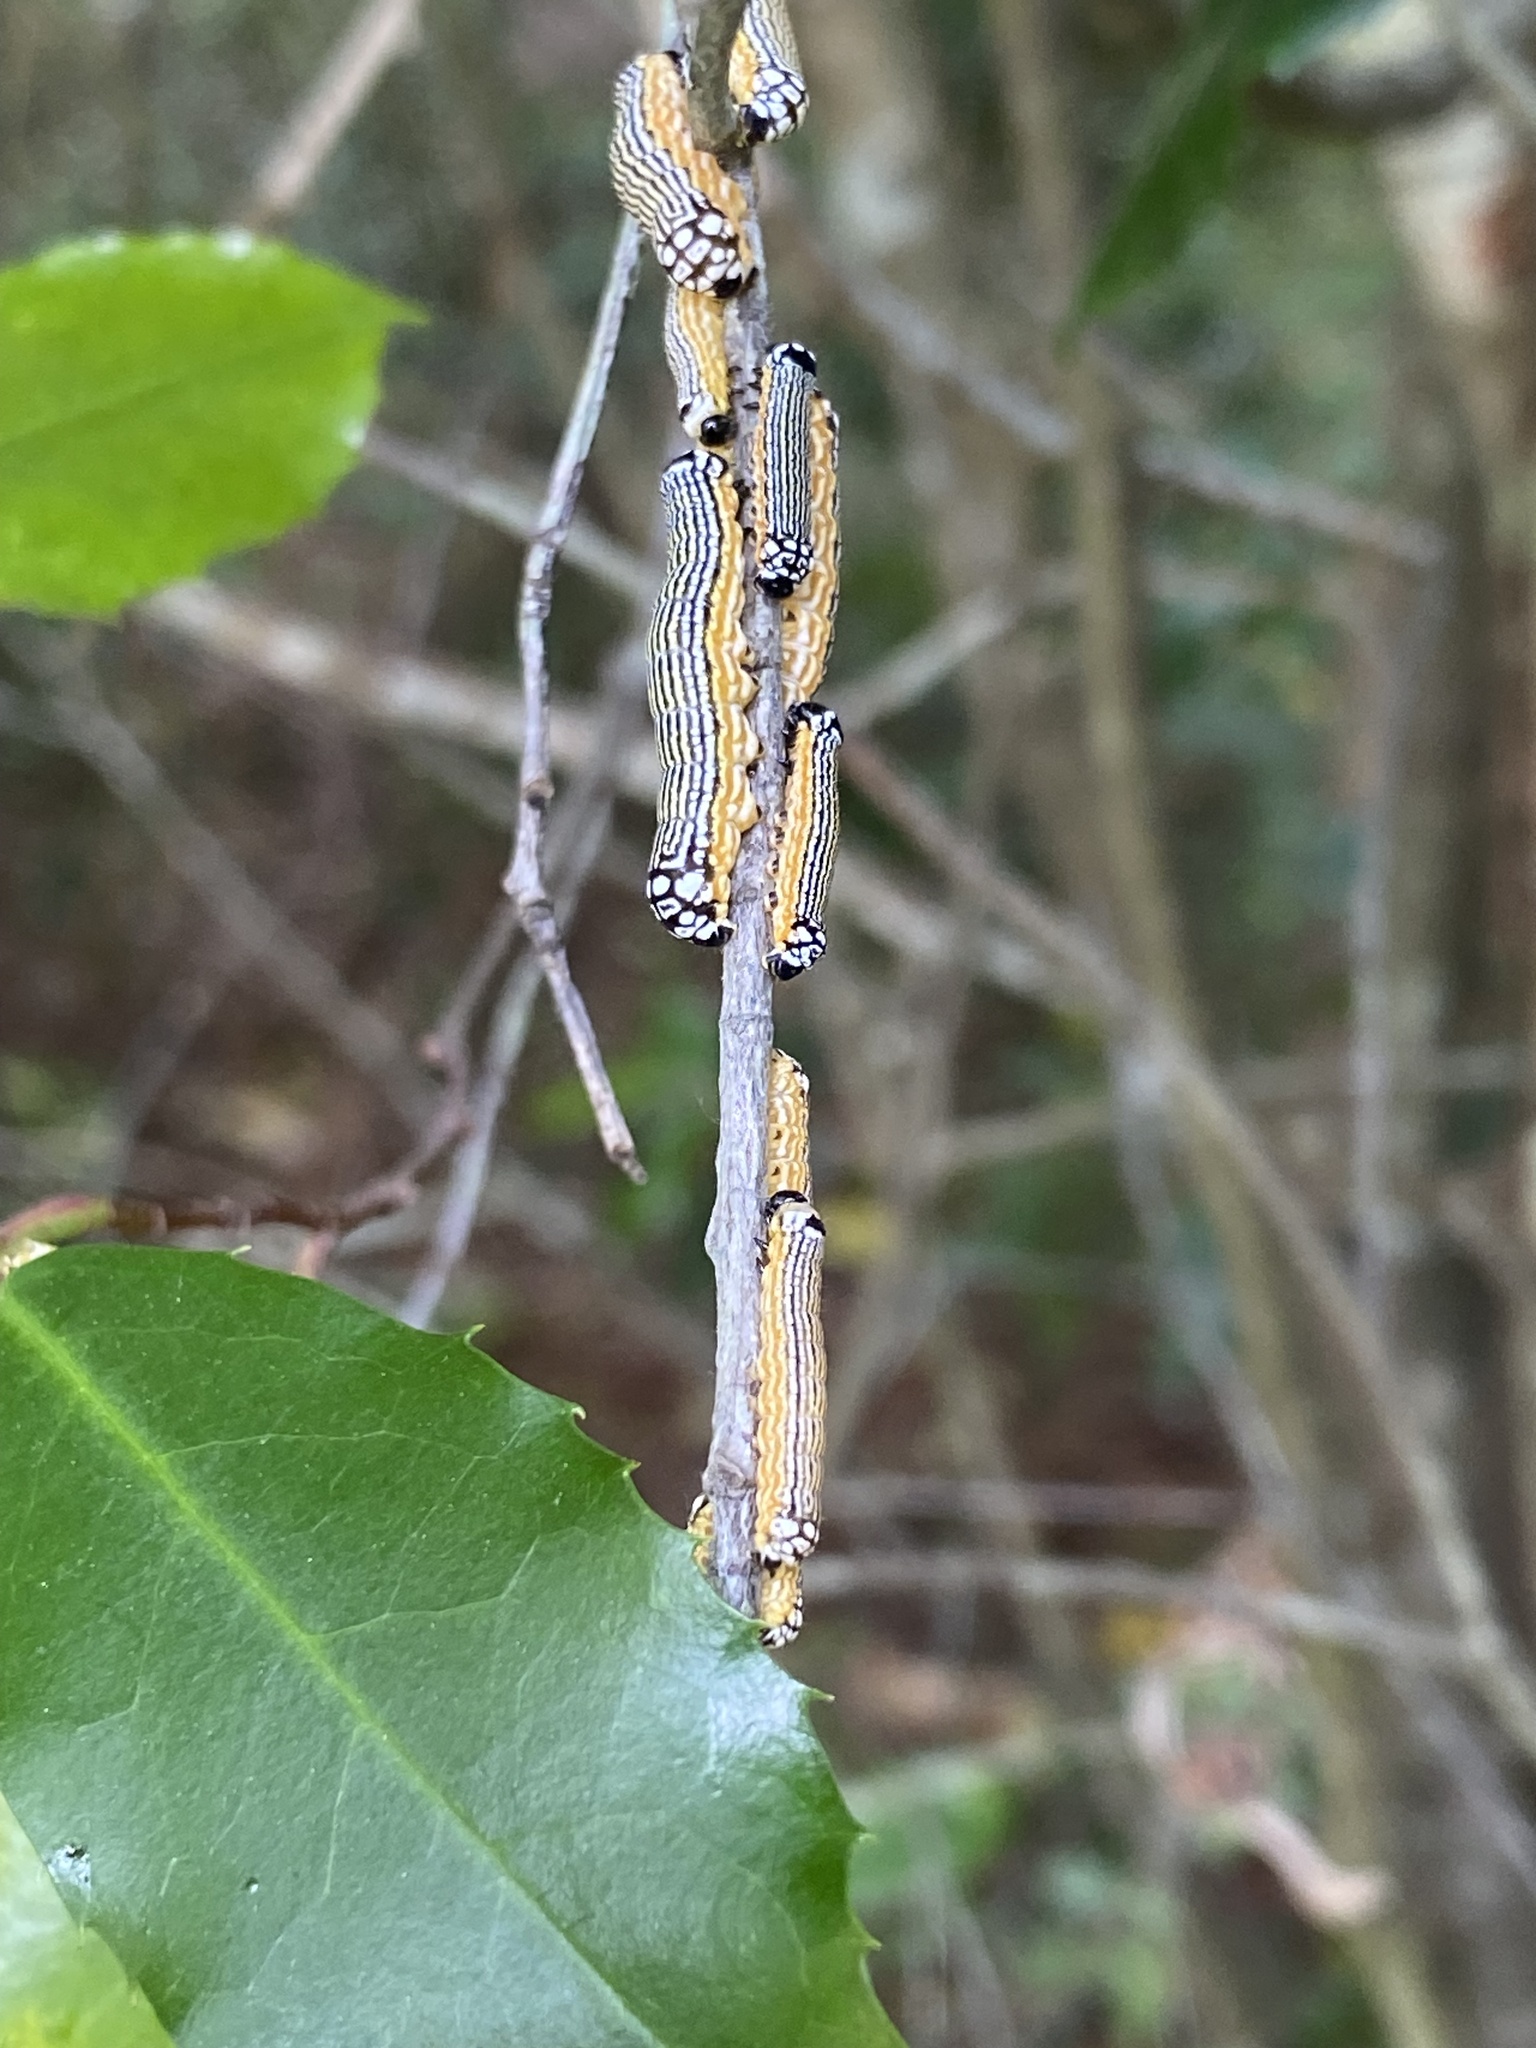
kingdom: Animalia
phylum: Arthropoda
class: Insecta
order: Lepidoptera
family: Noctuidae
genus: Phosphila
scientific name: Phosphila turbulenta
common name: Turbulent phosphila moth
